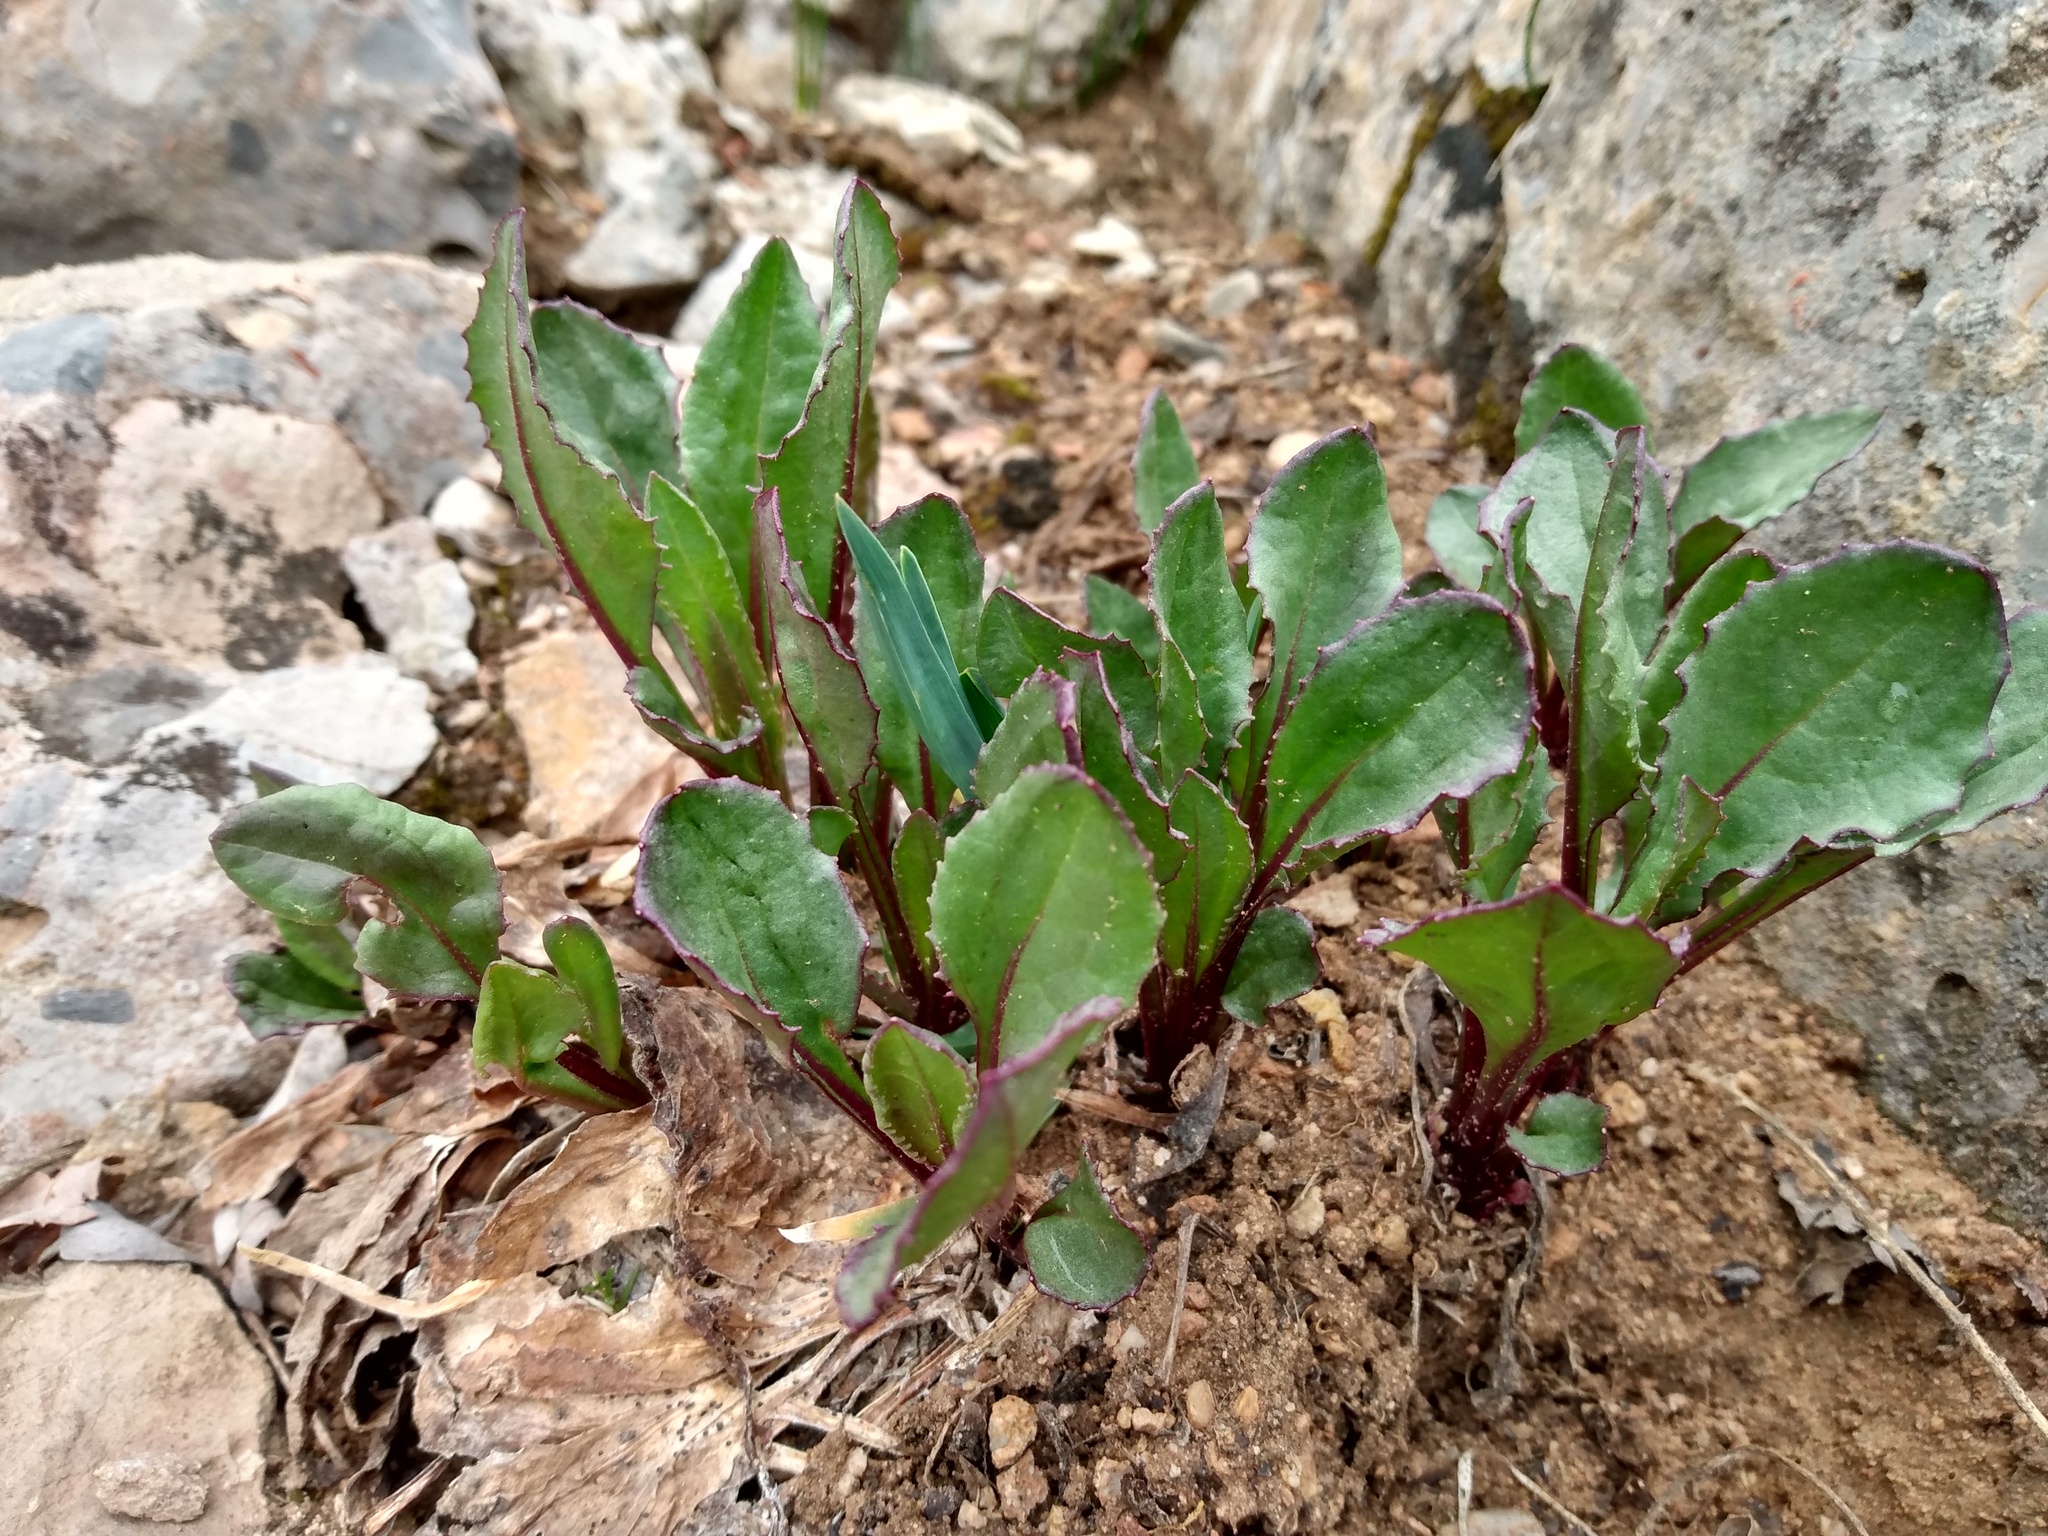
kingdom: Plantae
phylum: Tracheophyta
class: Magnoliopsida
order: Asterales
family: Asteraceae
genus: Senecio
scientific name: Senecio amplectens
